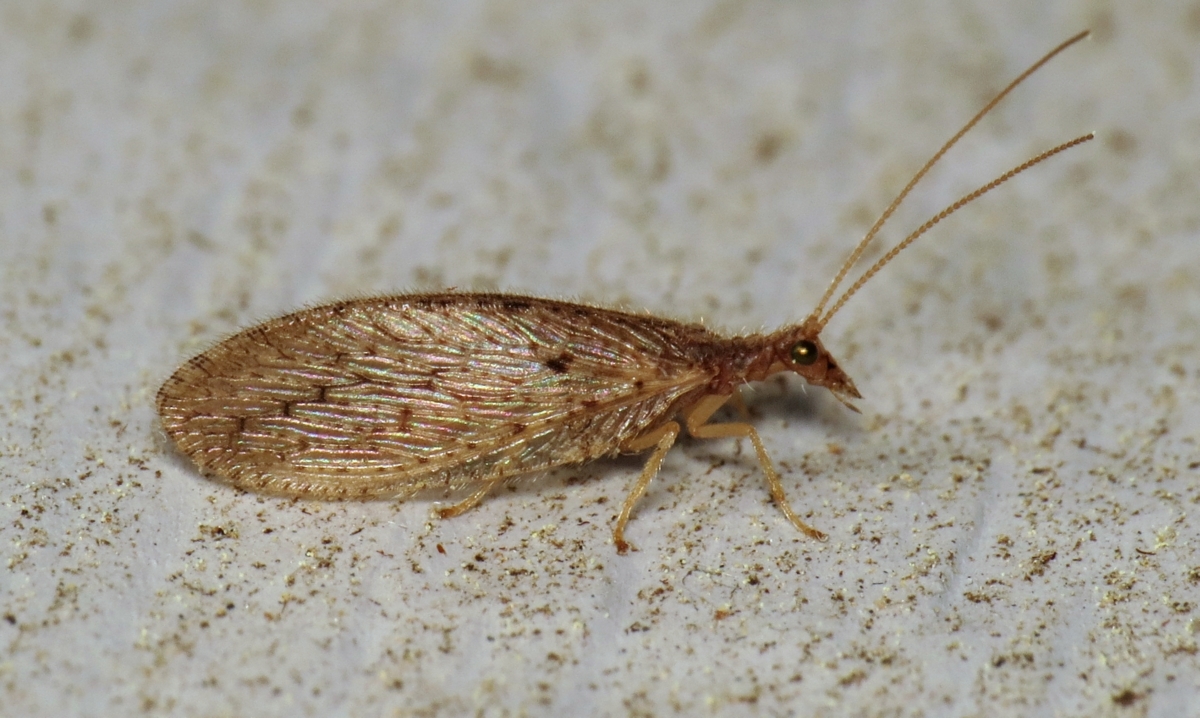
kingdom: Animalia
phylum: Arthropoda
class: Insecta
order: Neuroptera
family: Hemerobiidae
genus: Micromus
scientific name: Micromus subanticus
